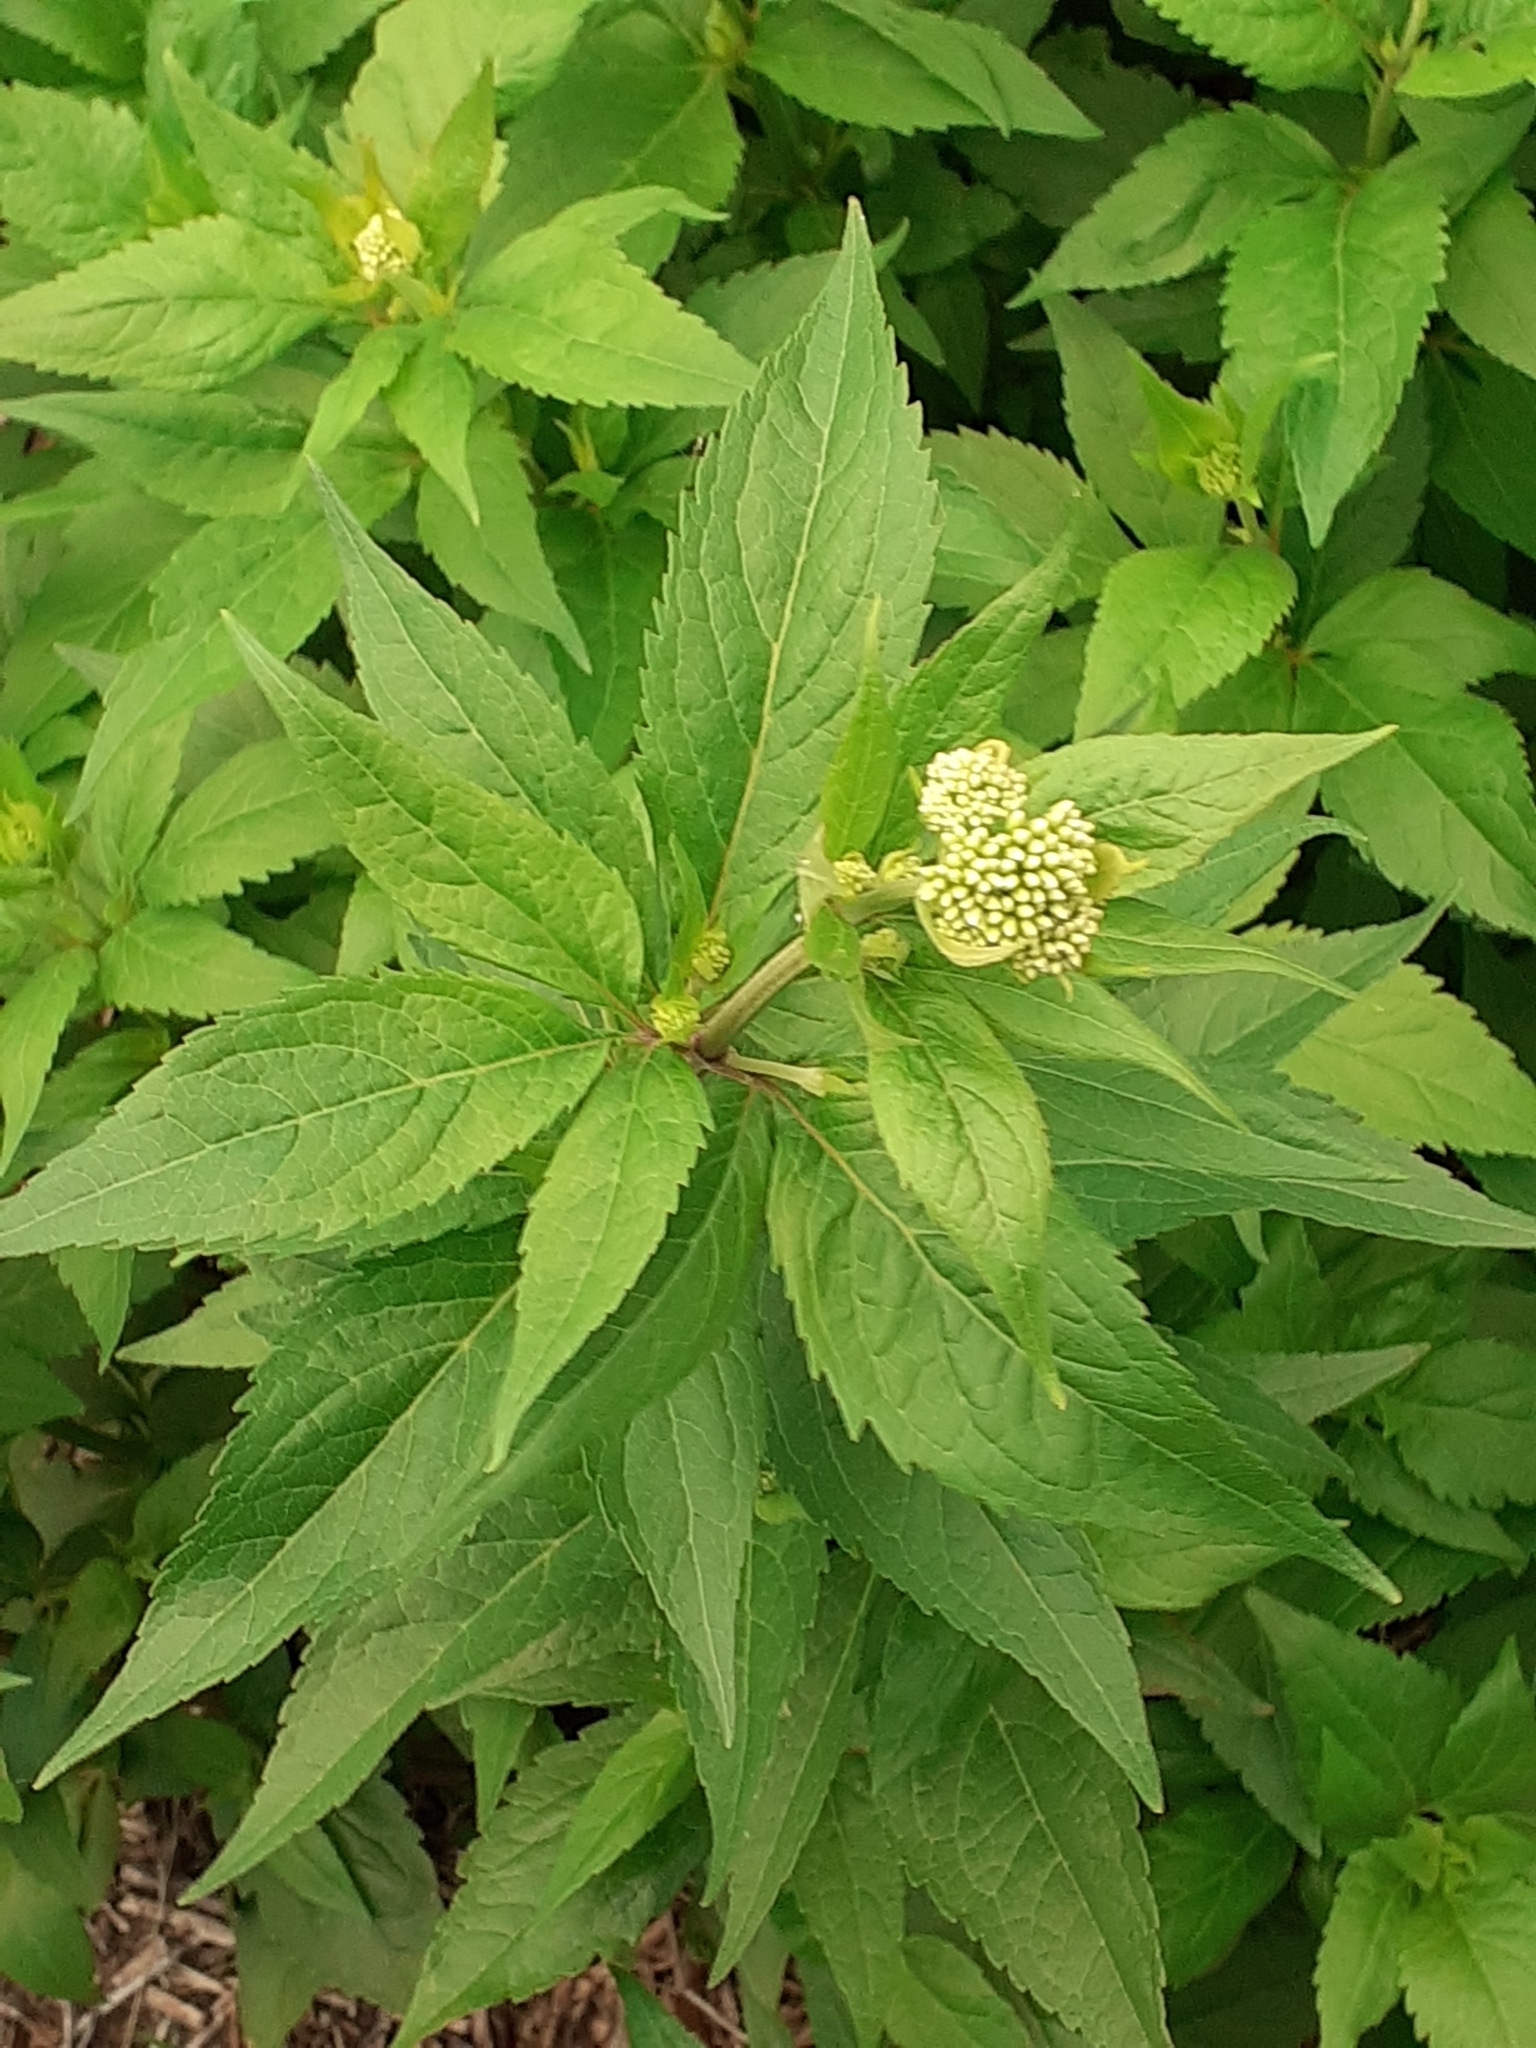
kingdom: Plantae
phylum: Tracheophyta
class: Magnoliopsida
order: Asterales
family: Asteraceae
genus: Eupatorium
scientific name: Eupatorium cannabinum
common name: Hemp-agrimony
